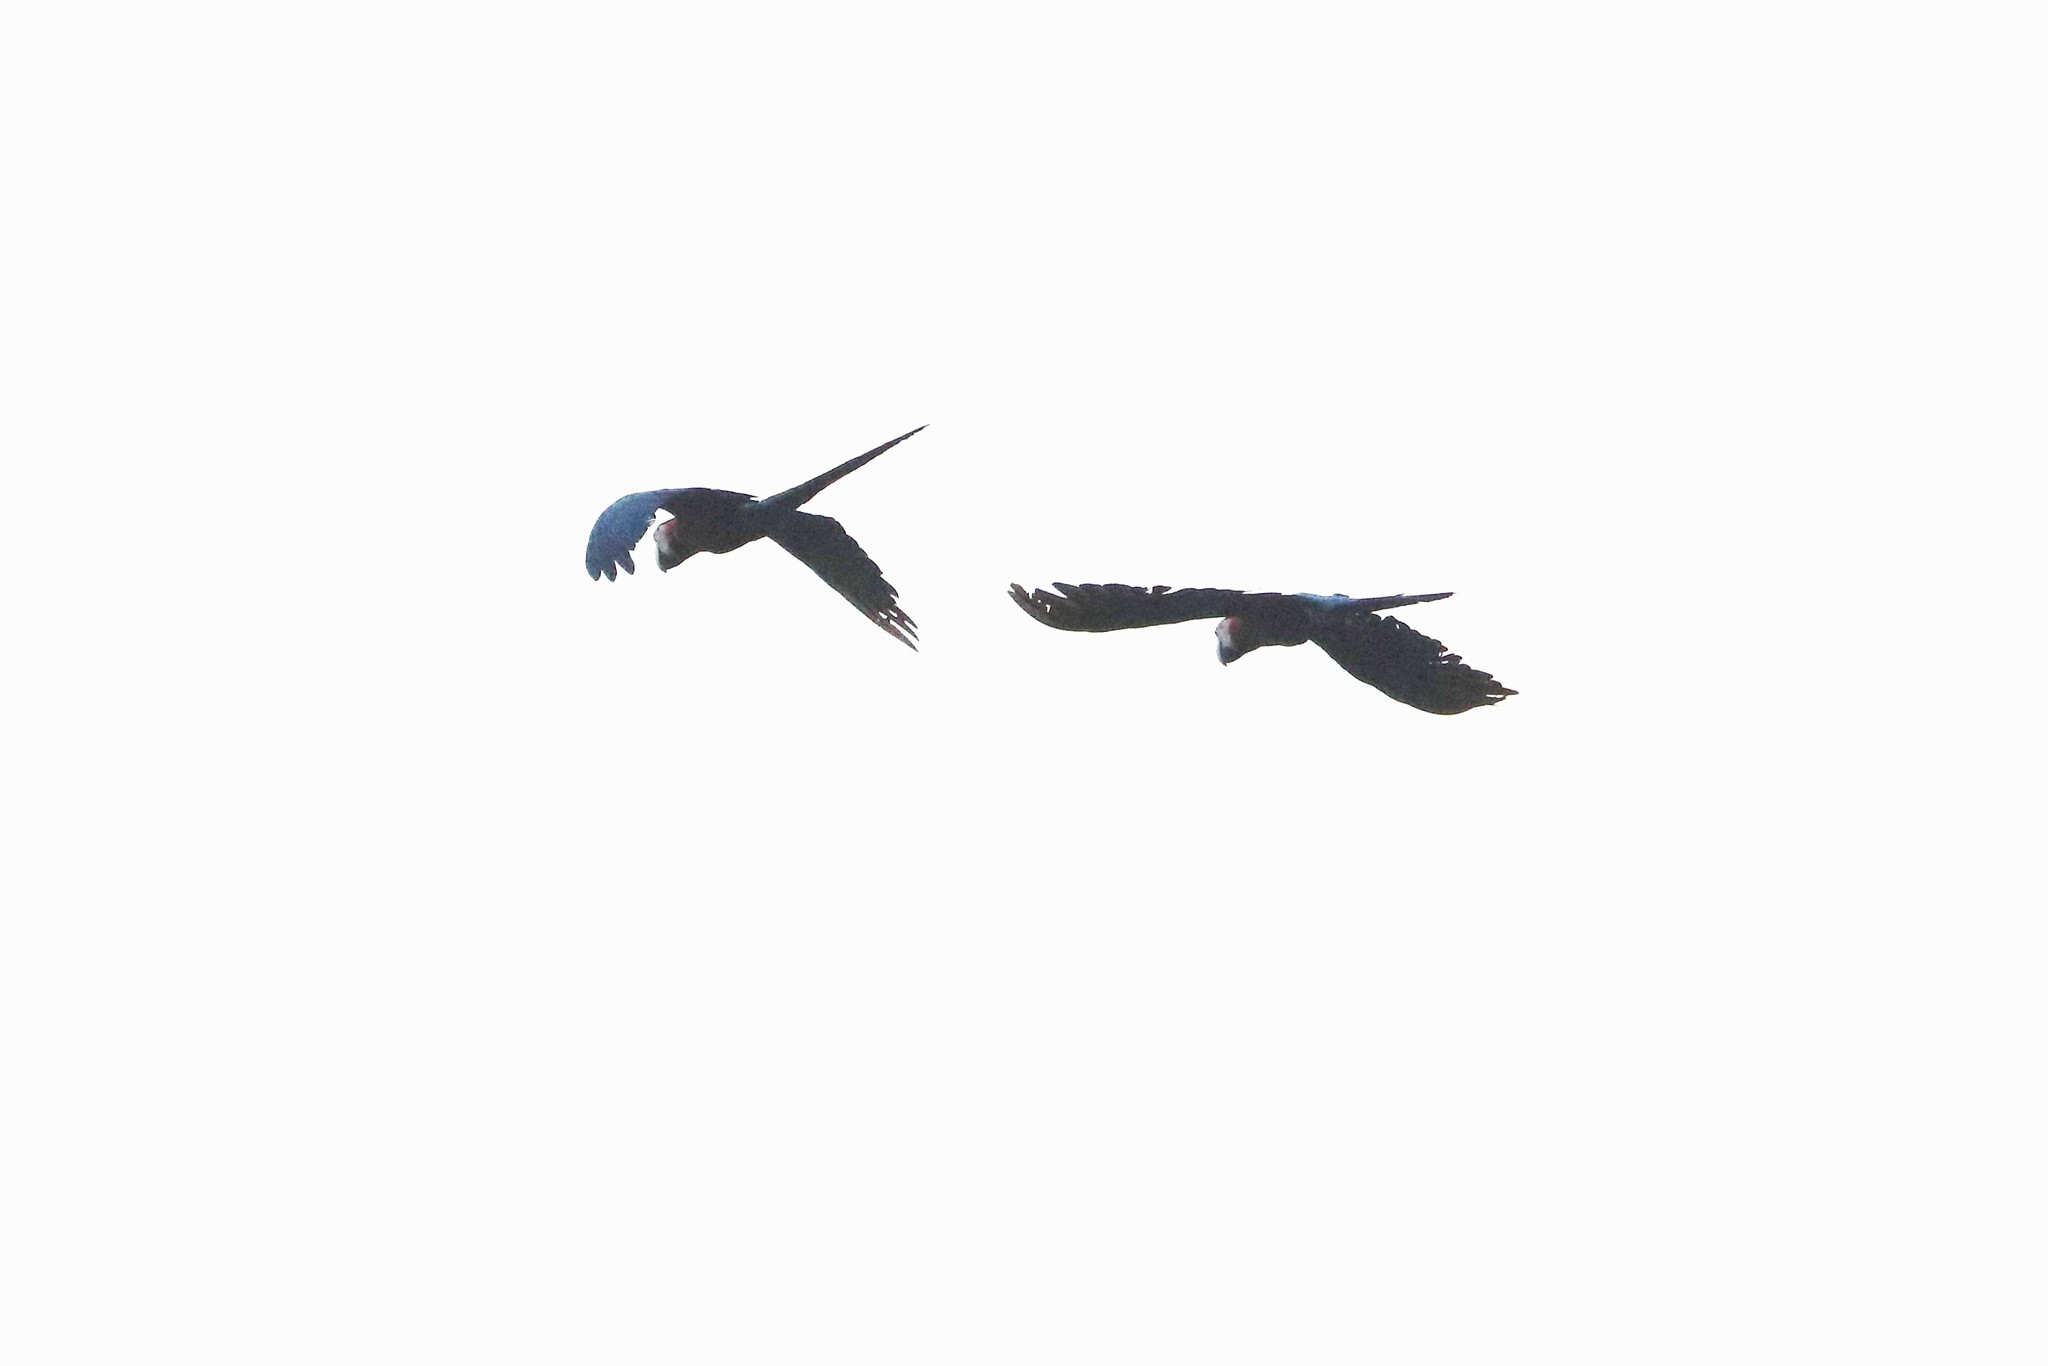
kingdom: Animalia
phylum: Chordata
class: Aves
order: Psittaciformes
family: Psittacidae
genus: Ara
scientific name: Ara macao
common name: Scarlet macaw
